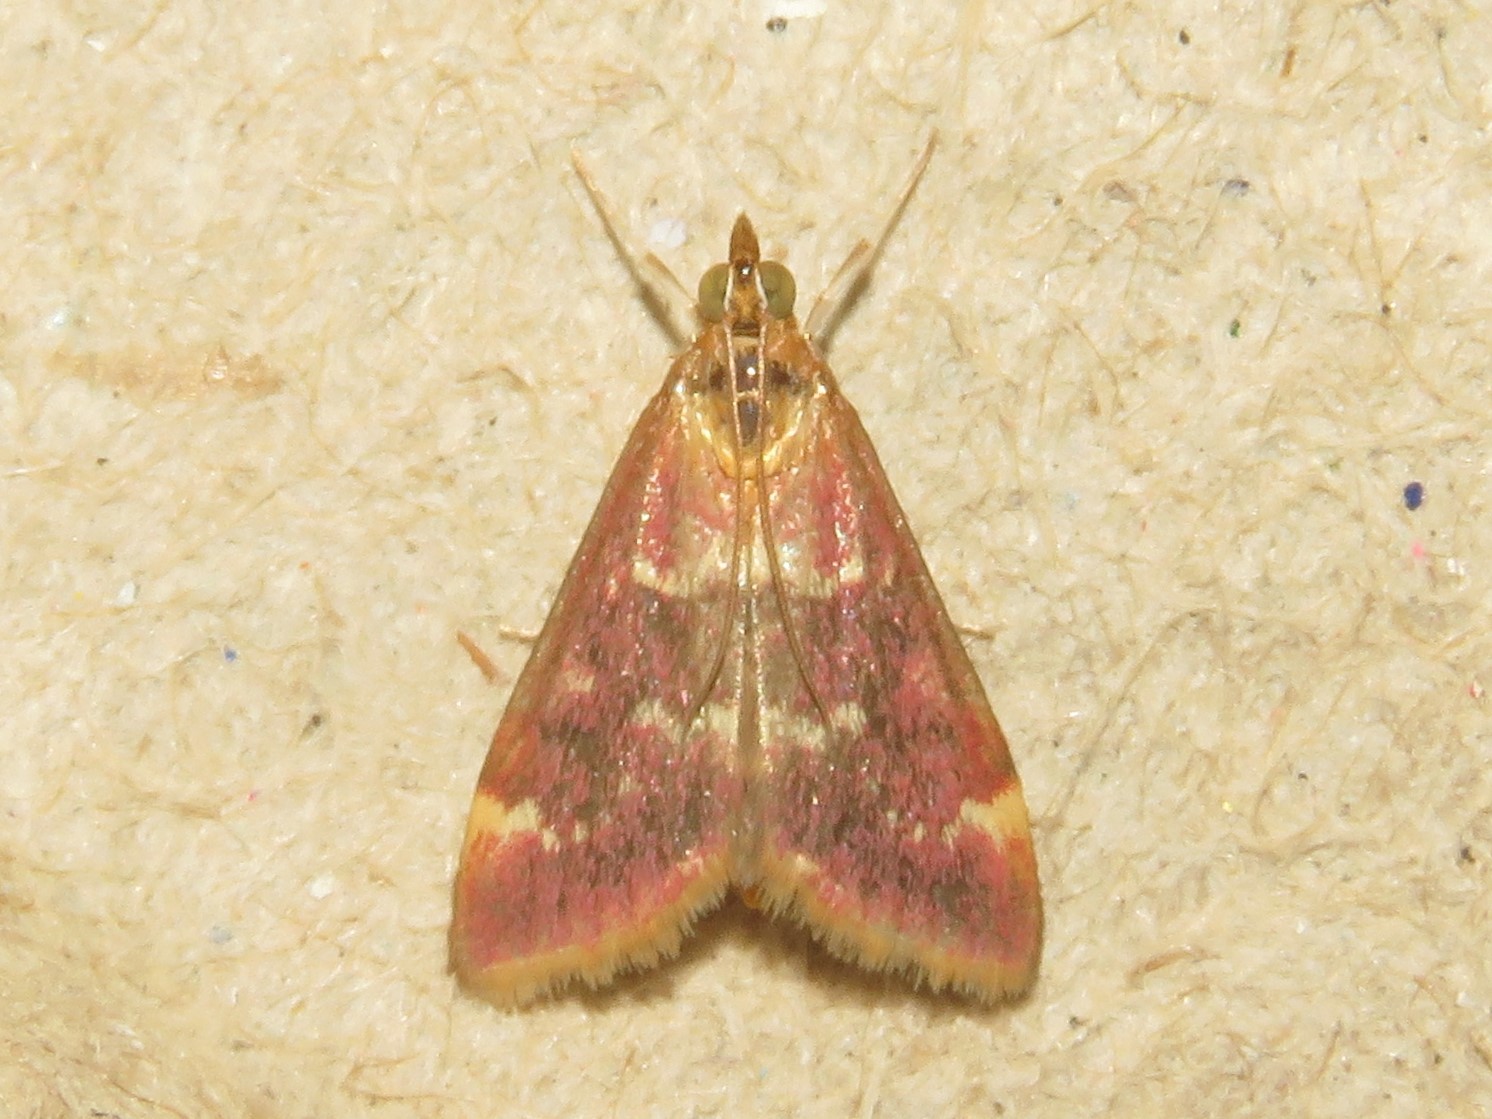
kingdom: Animalia
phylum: Arthropoda
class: Insecta
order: Lepidoptera
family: Crambidae
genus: Pyrausta
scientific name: Pyrausta signatalis
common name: Raspberry pyrausta moth
